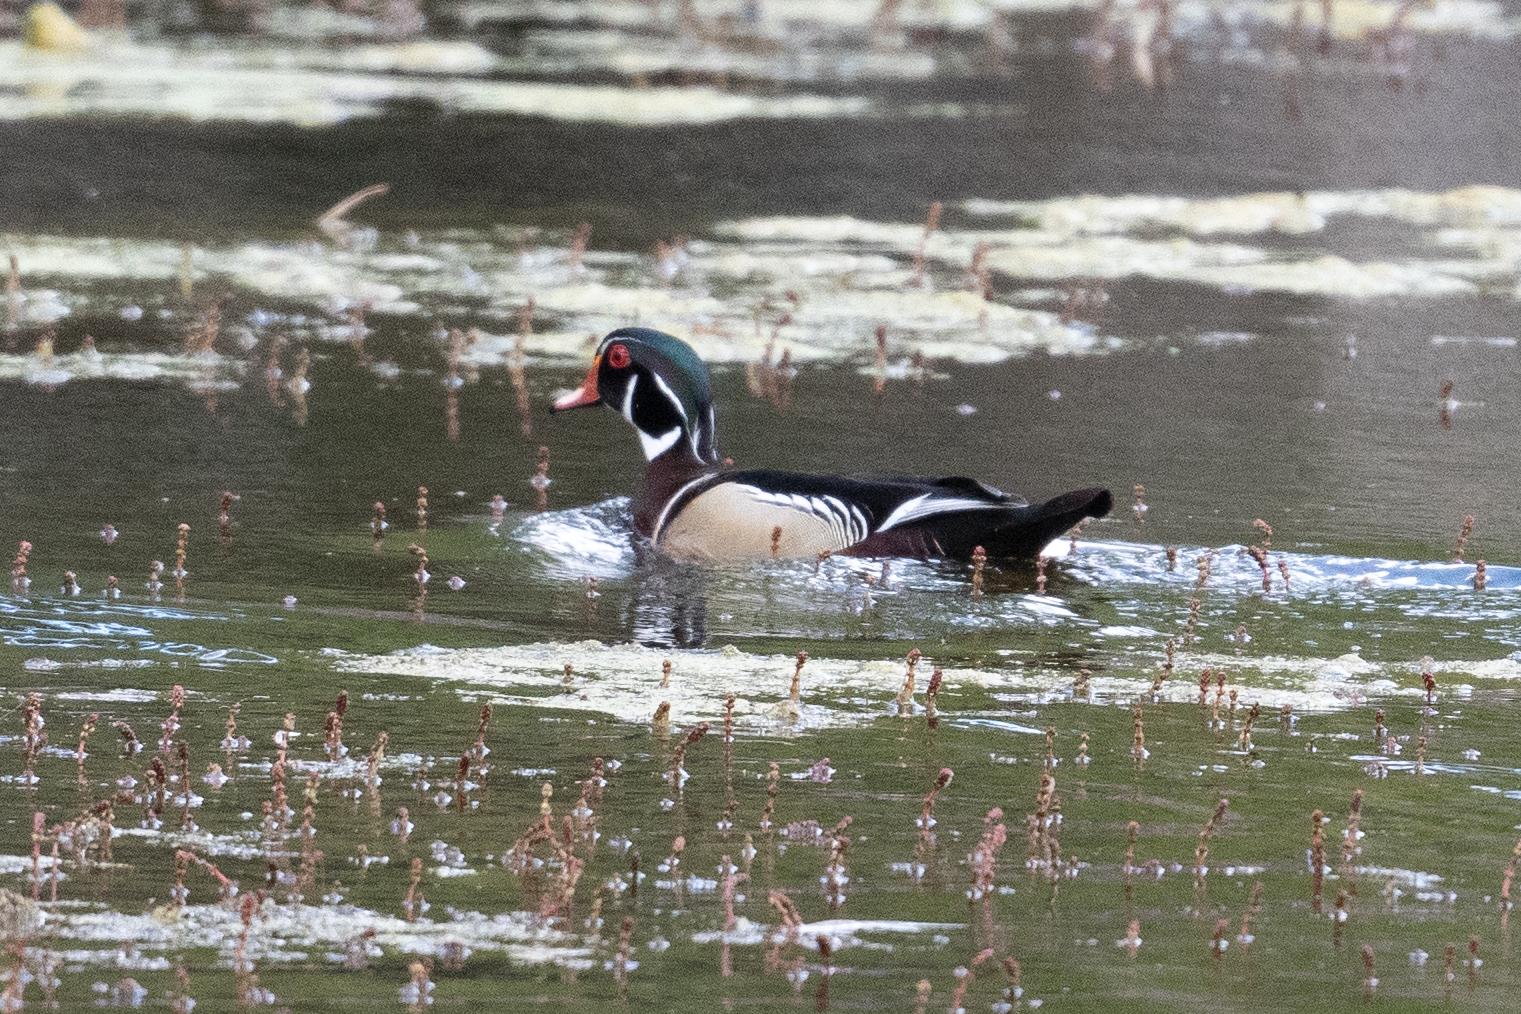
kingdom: Animalia
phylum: Chordata
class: Aves
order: Anseriformes
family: Anatidae
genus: Aix
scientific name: Aix sponsa
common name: Wood duck
